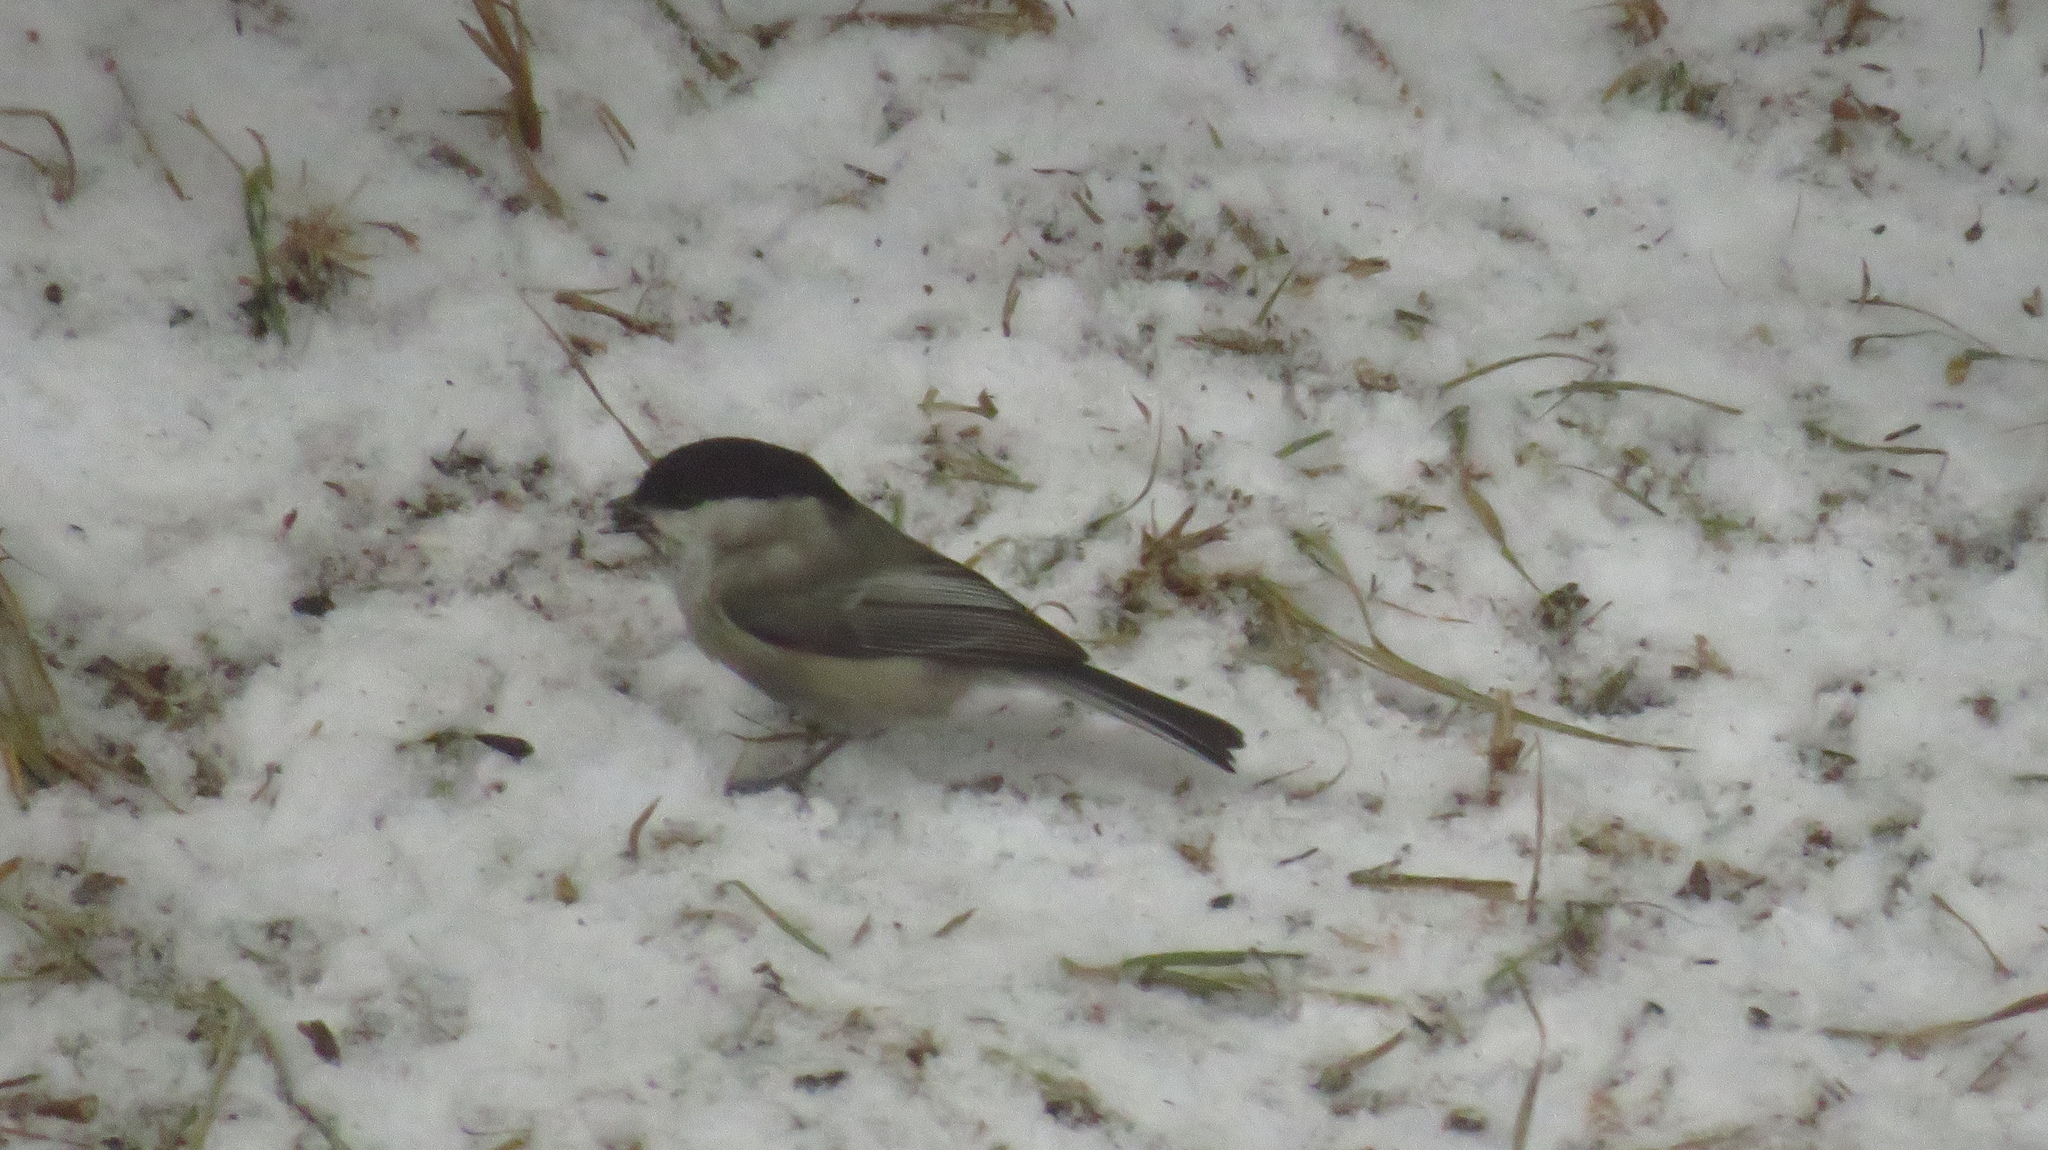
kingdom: Animalia
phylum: Chordata
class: Aves
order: Passeriformes
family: Paridae
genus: Poecile
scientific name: Poecile montanus
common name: Willow tit
